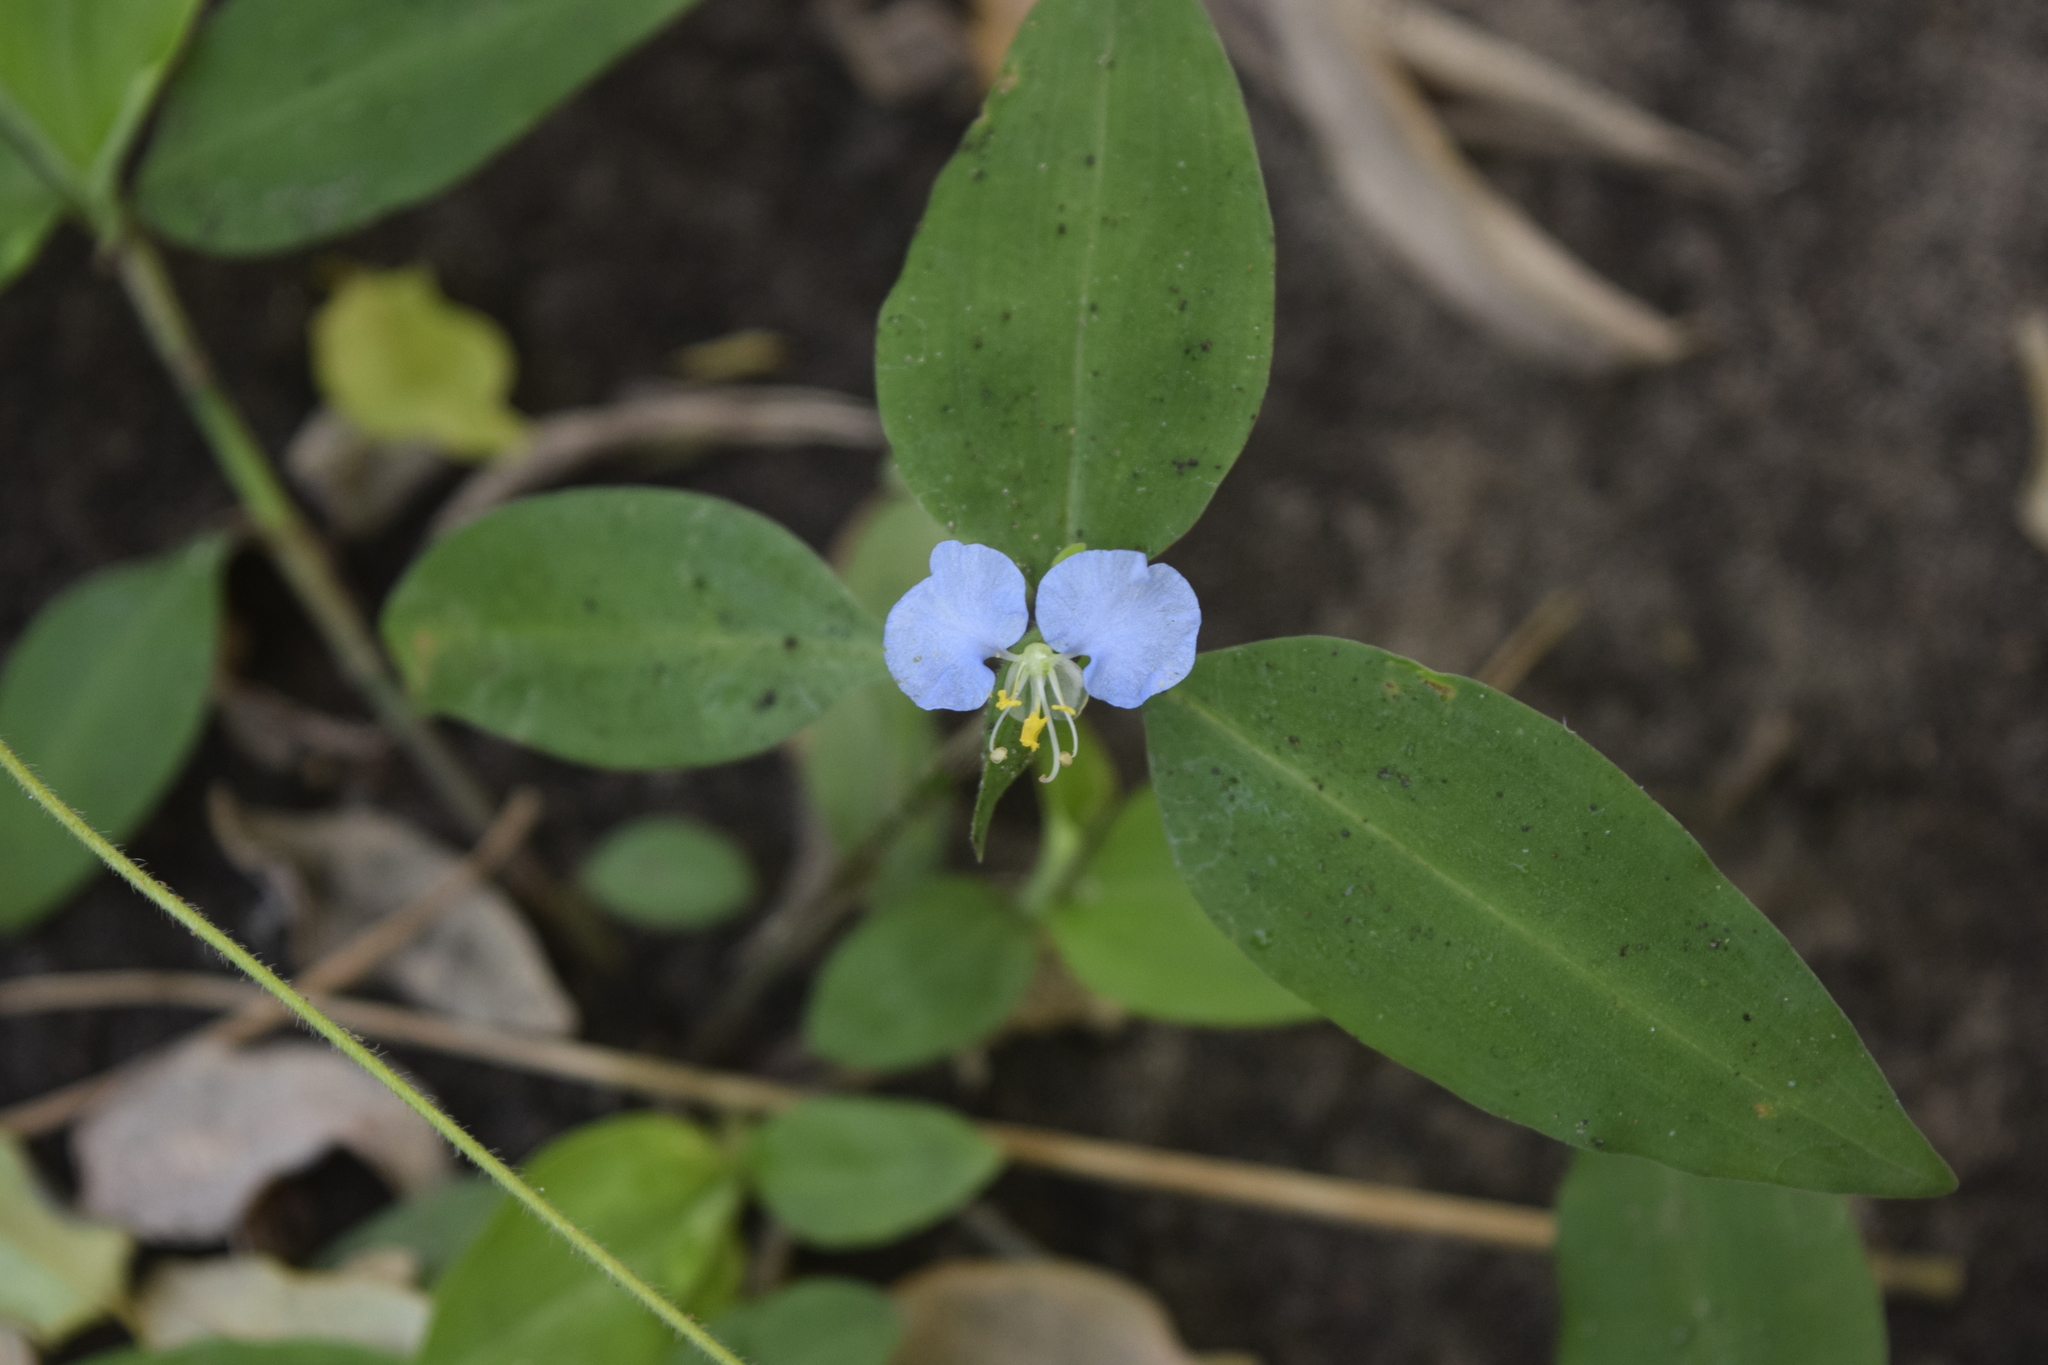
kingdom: Plantae
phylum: Tracheophyta
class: Liliopsida
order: Commelinales
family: Commelinaceae
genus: Commelina
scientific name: Commelina erecta
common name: Blousel blommetjie
